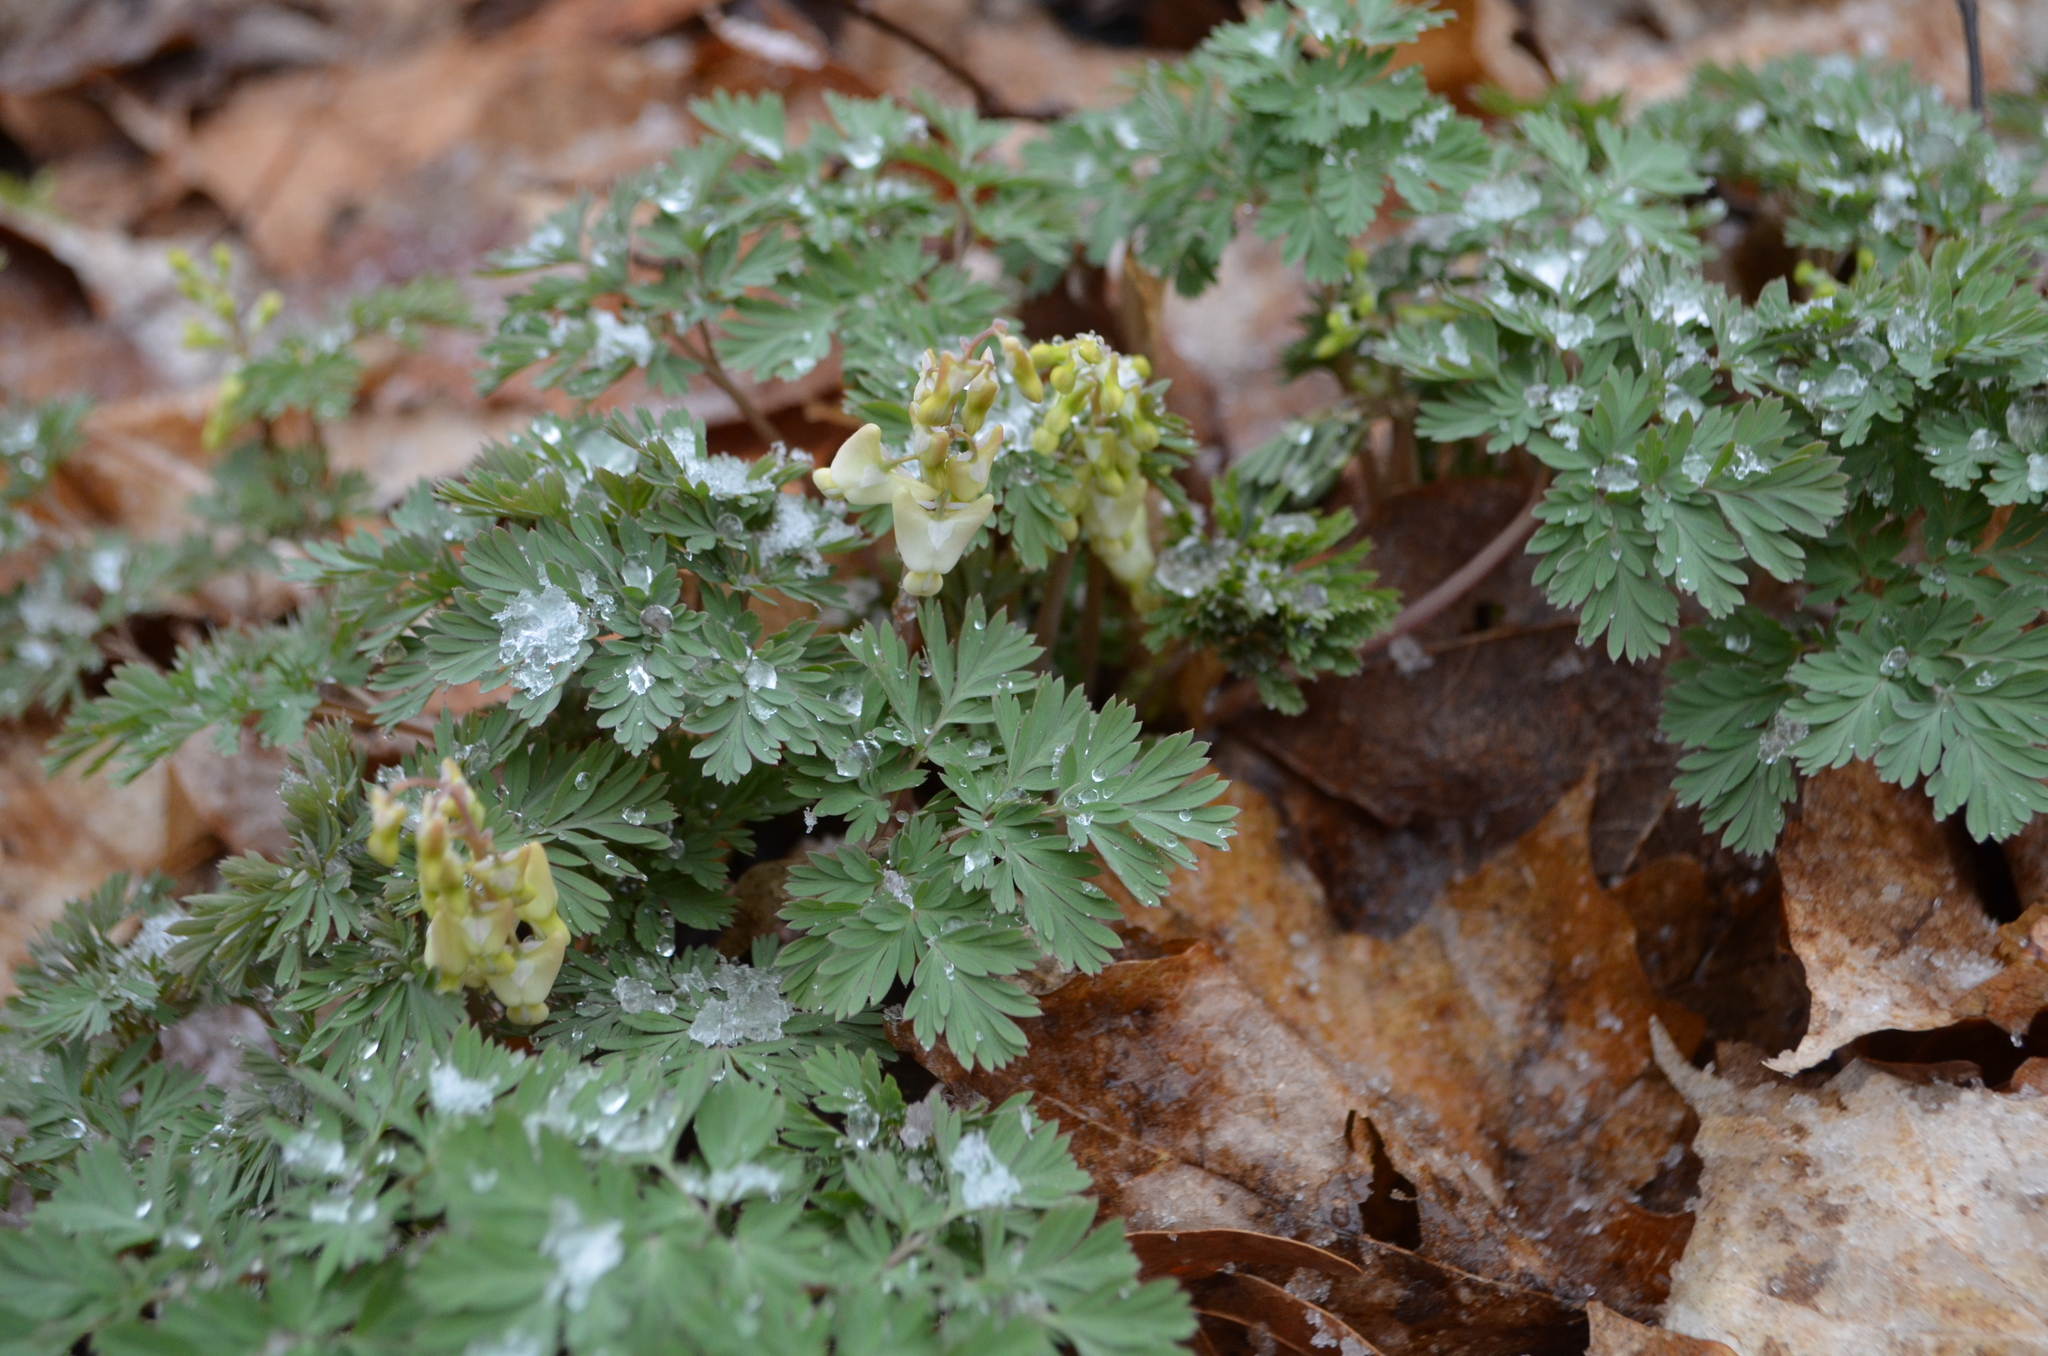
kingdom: Plantae
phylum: Tracheophyta
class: Magnoliopsida
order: Ranunculales
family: Papaveraceae
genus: Dicentra
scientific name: Dicentra cucullaria
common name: Dutchman's breeches
